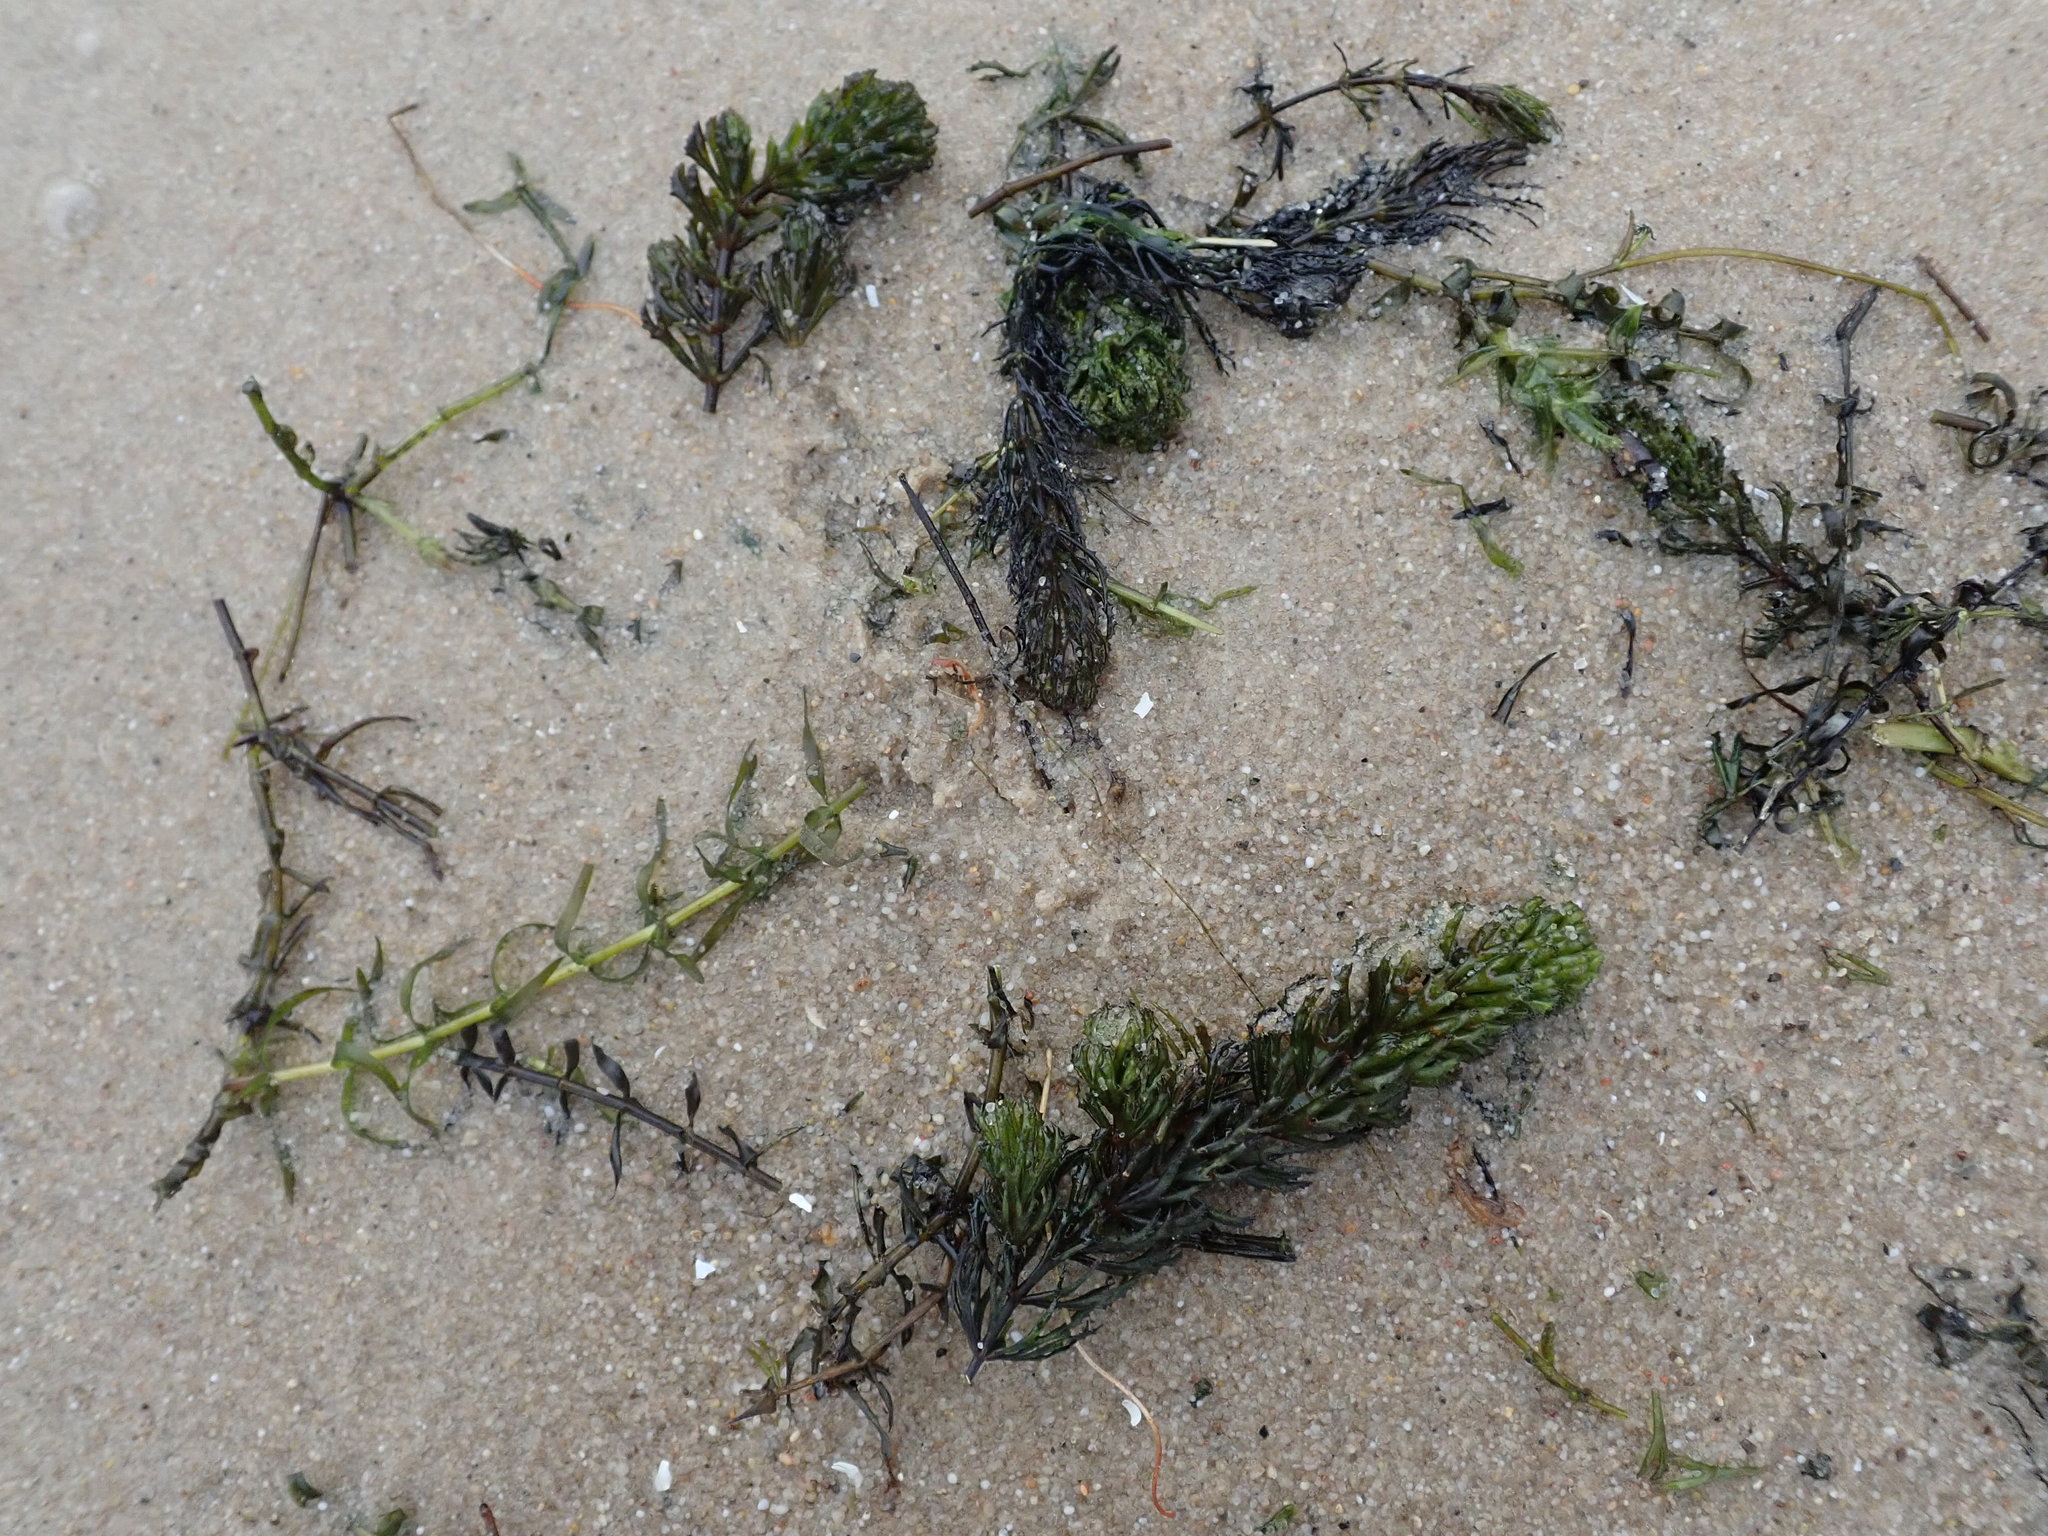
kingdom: Plantae
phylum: Tracheophyta
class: Magnoliopsida
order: Ceratophyllales
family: Ceratophyllaceae
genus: Ceratophyllum
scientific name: Ceratophyllum demersum
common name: Rigid hornwort
